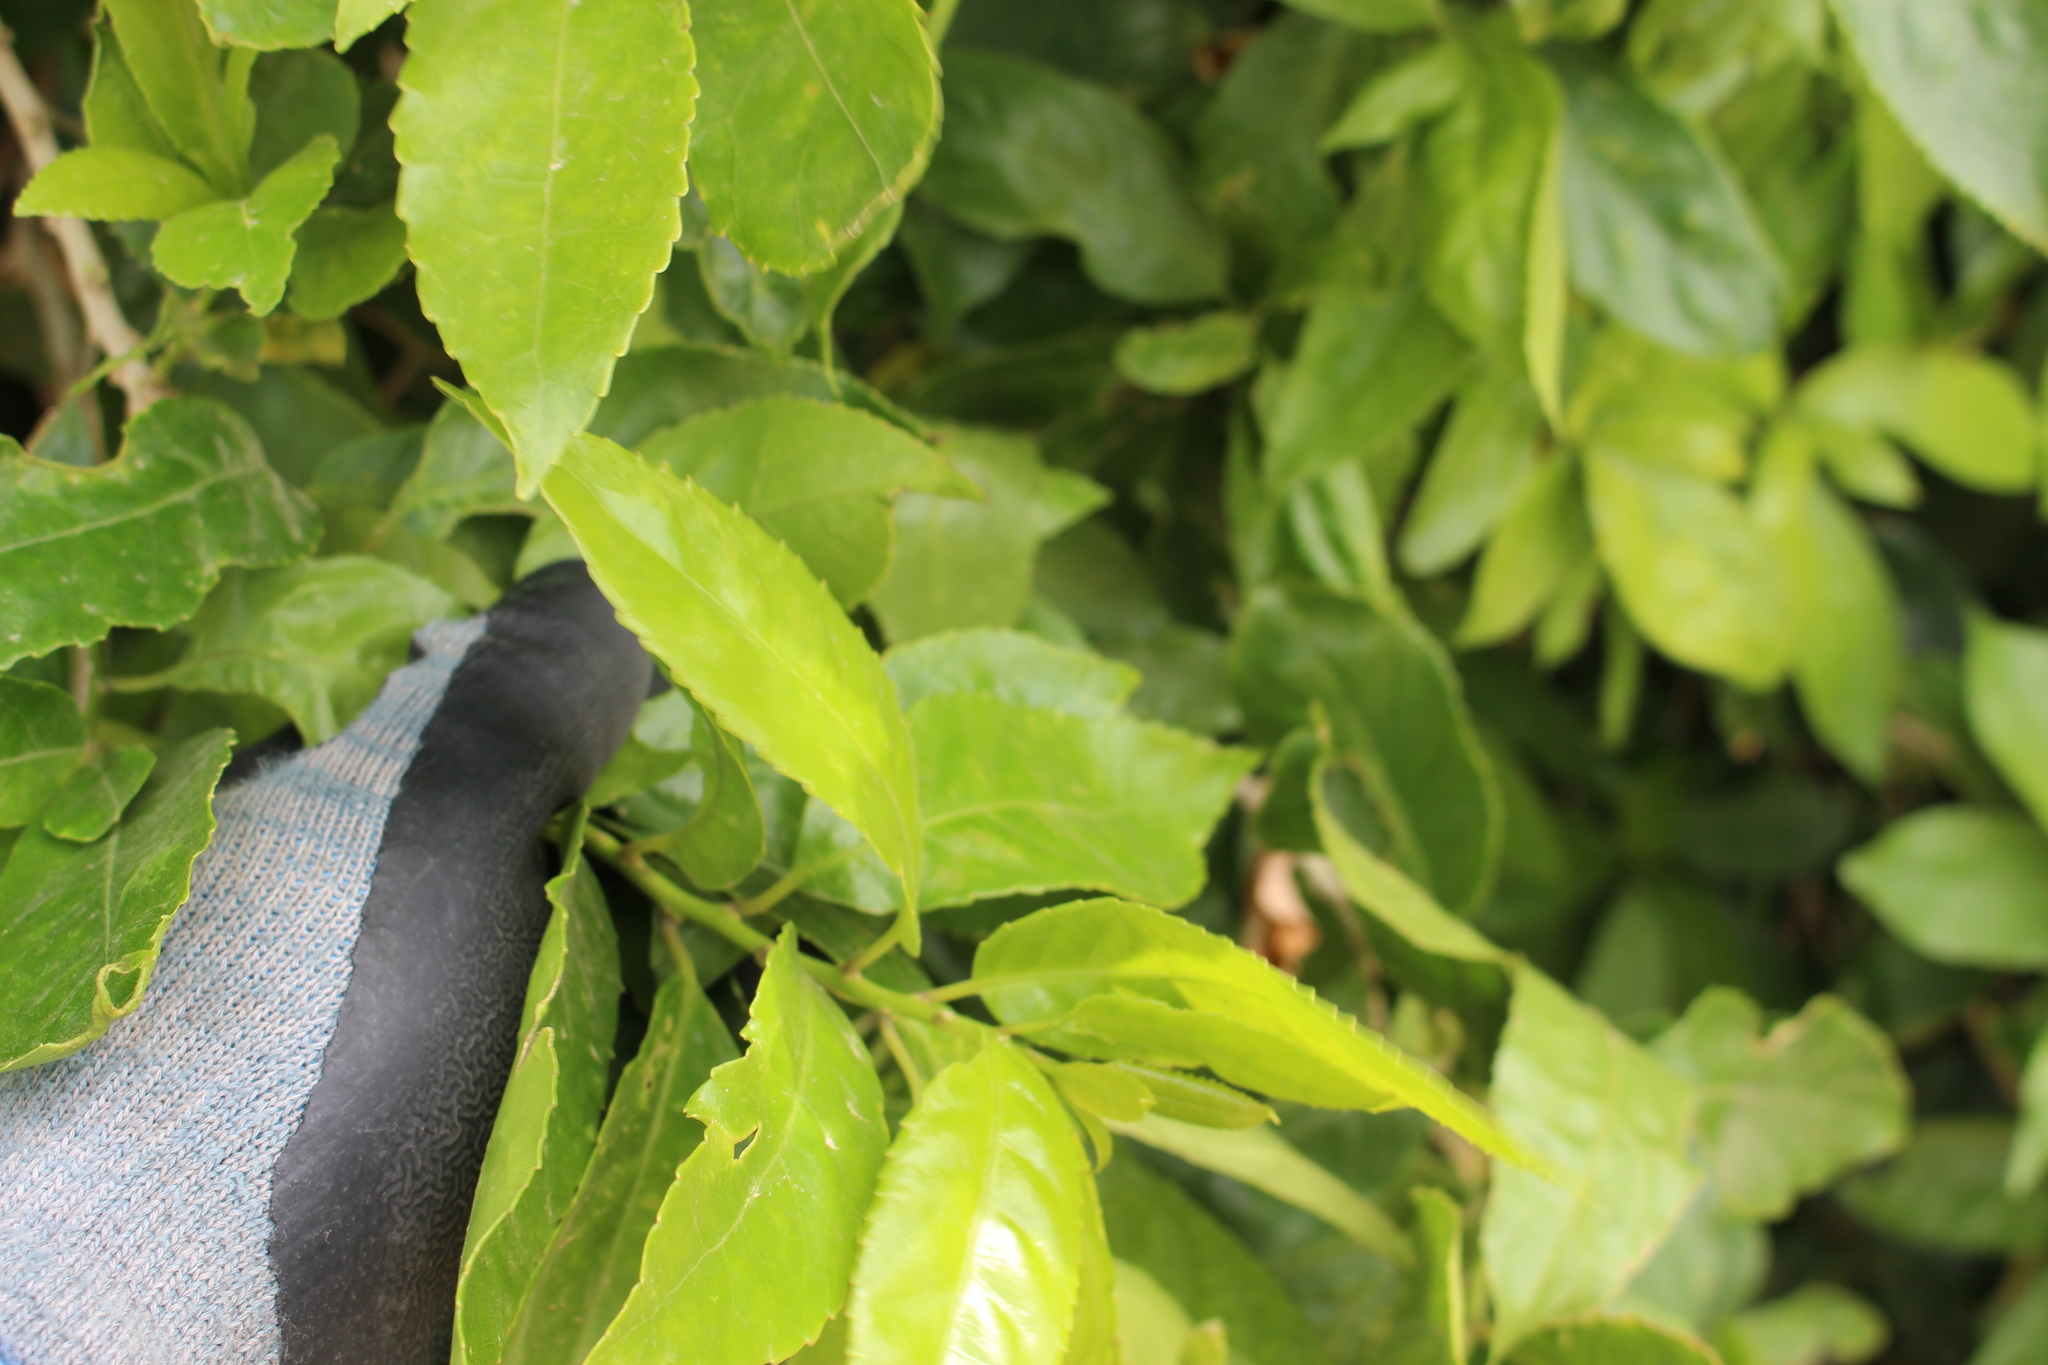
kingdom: Plantae
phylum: Tracheophyta
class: Magnoliopsida
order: Malpighiales
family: Violaceae
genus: Melicytus
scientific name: Melicytus ramiflorus
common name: Mahoe
